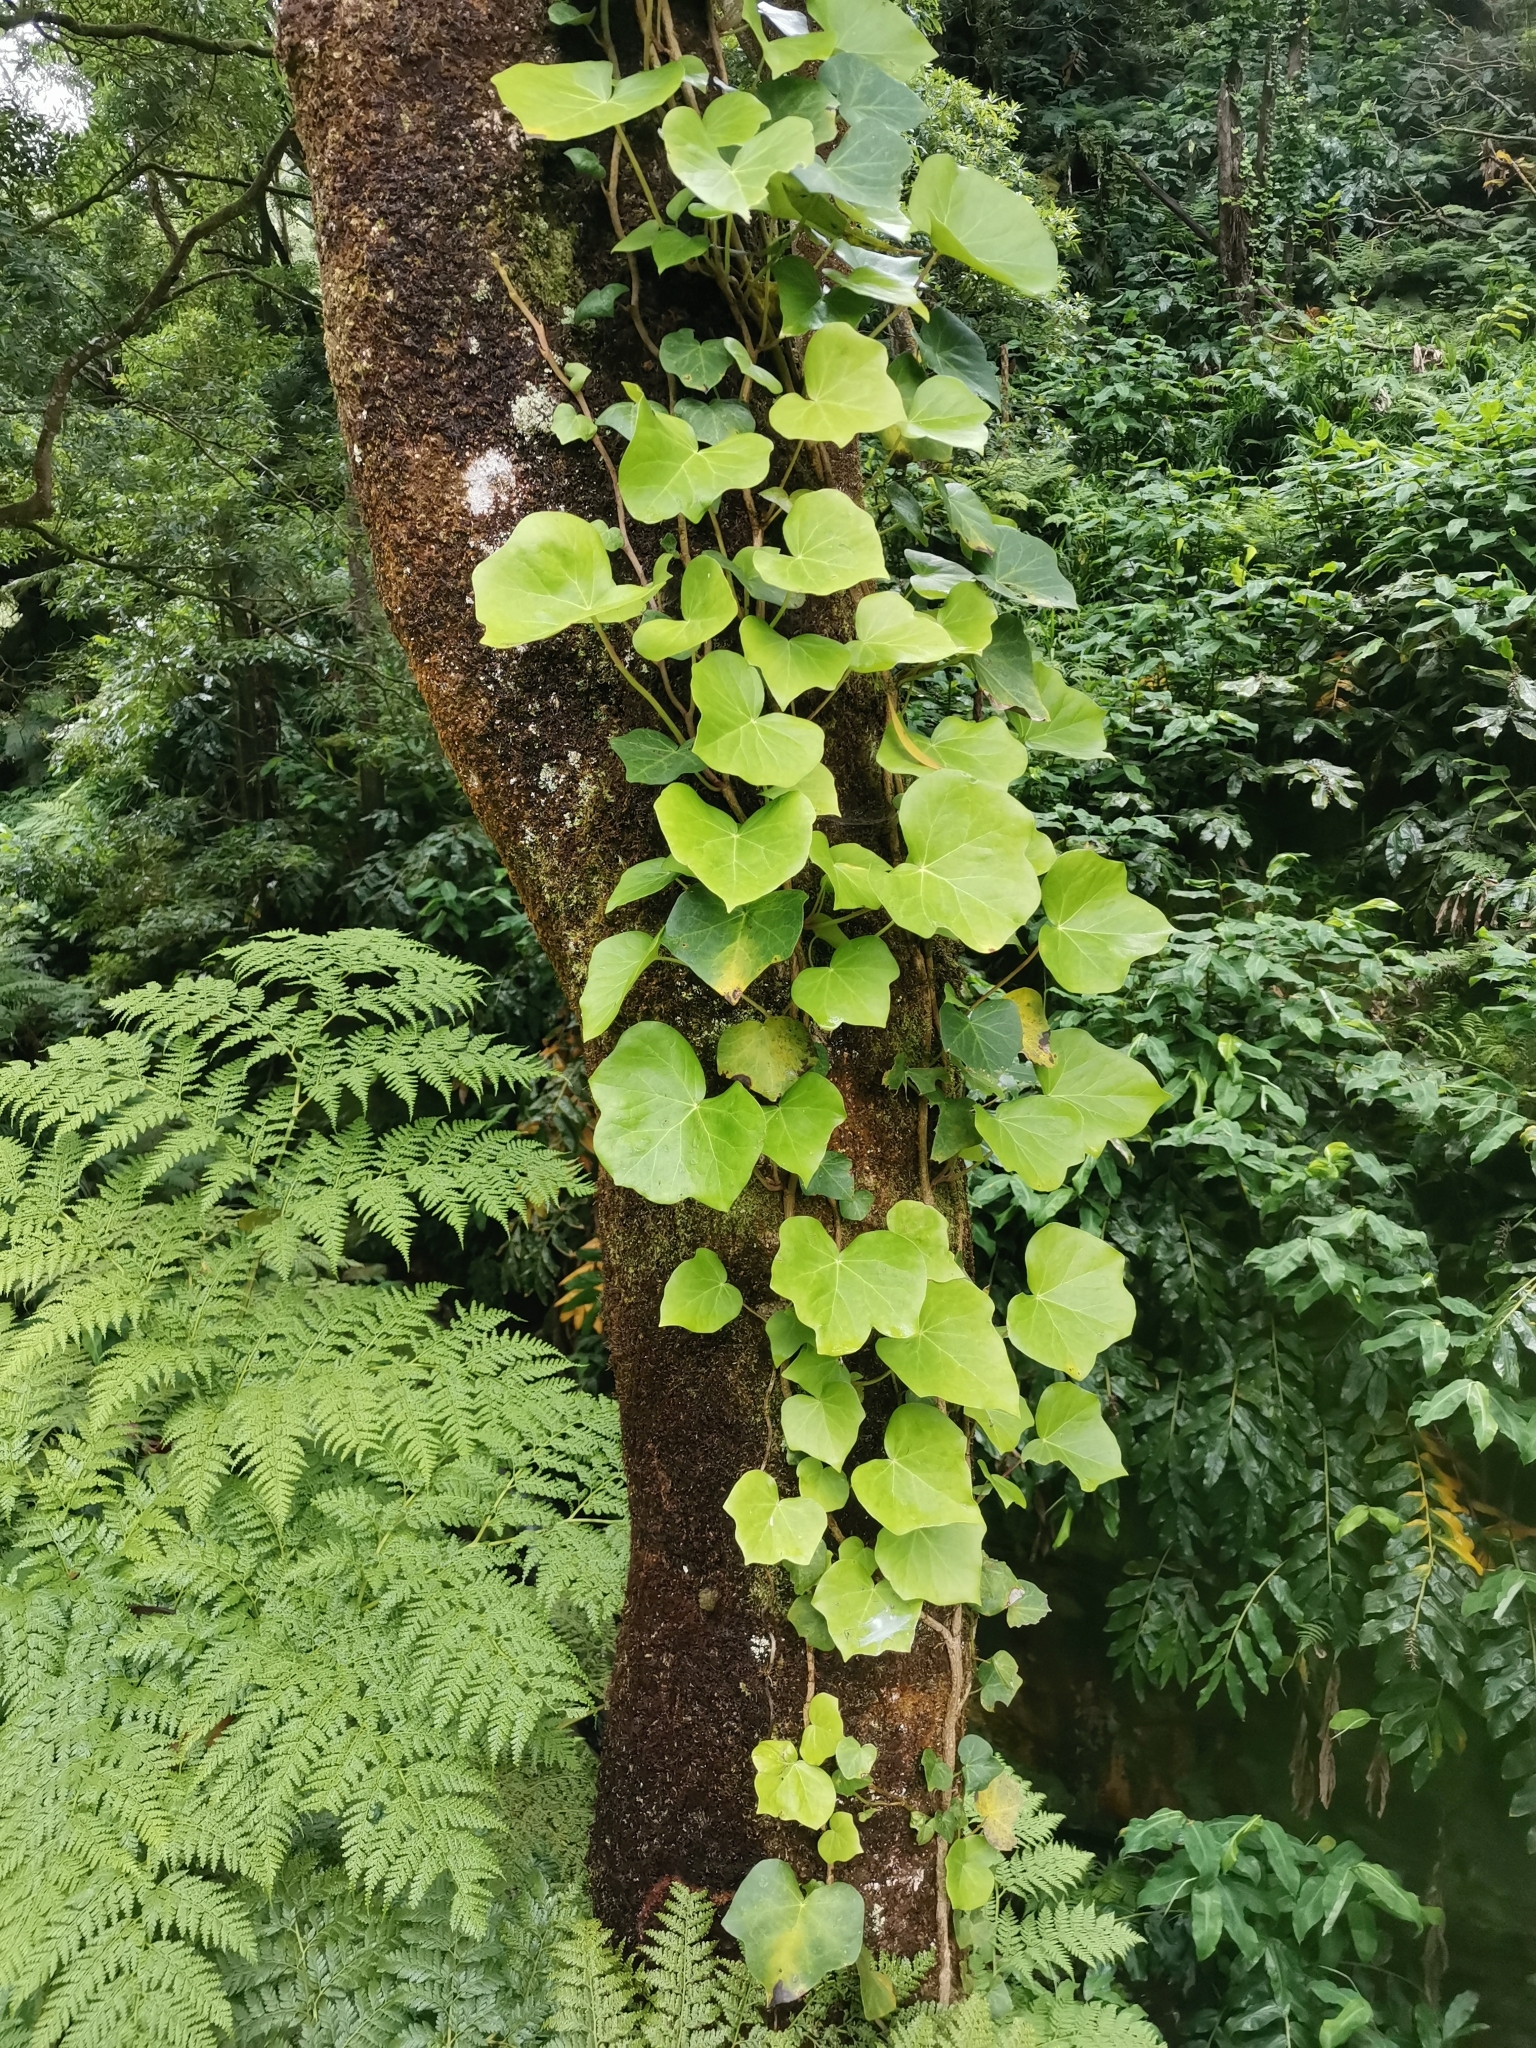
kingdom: Plantae
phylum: Tracheophyta
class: Magnoliopsida
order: Apiales
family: Araliaceae
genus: Hedera
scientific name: Hedera azorica
